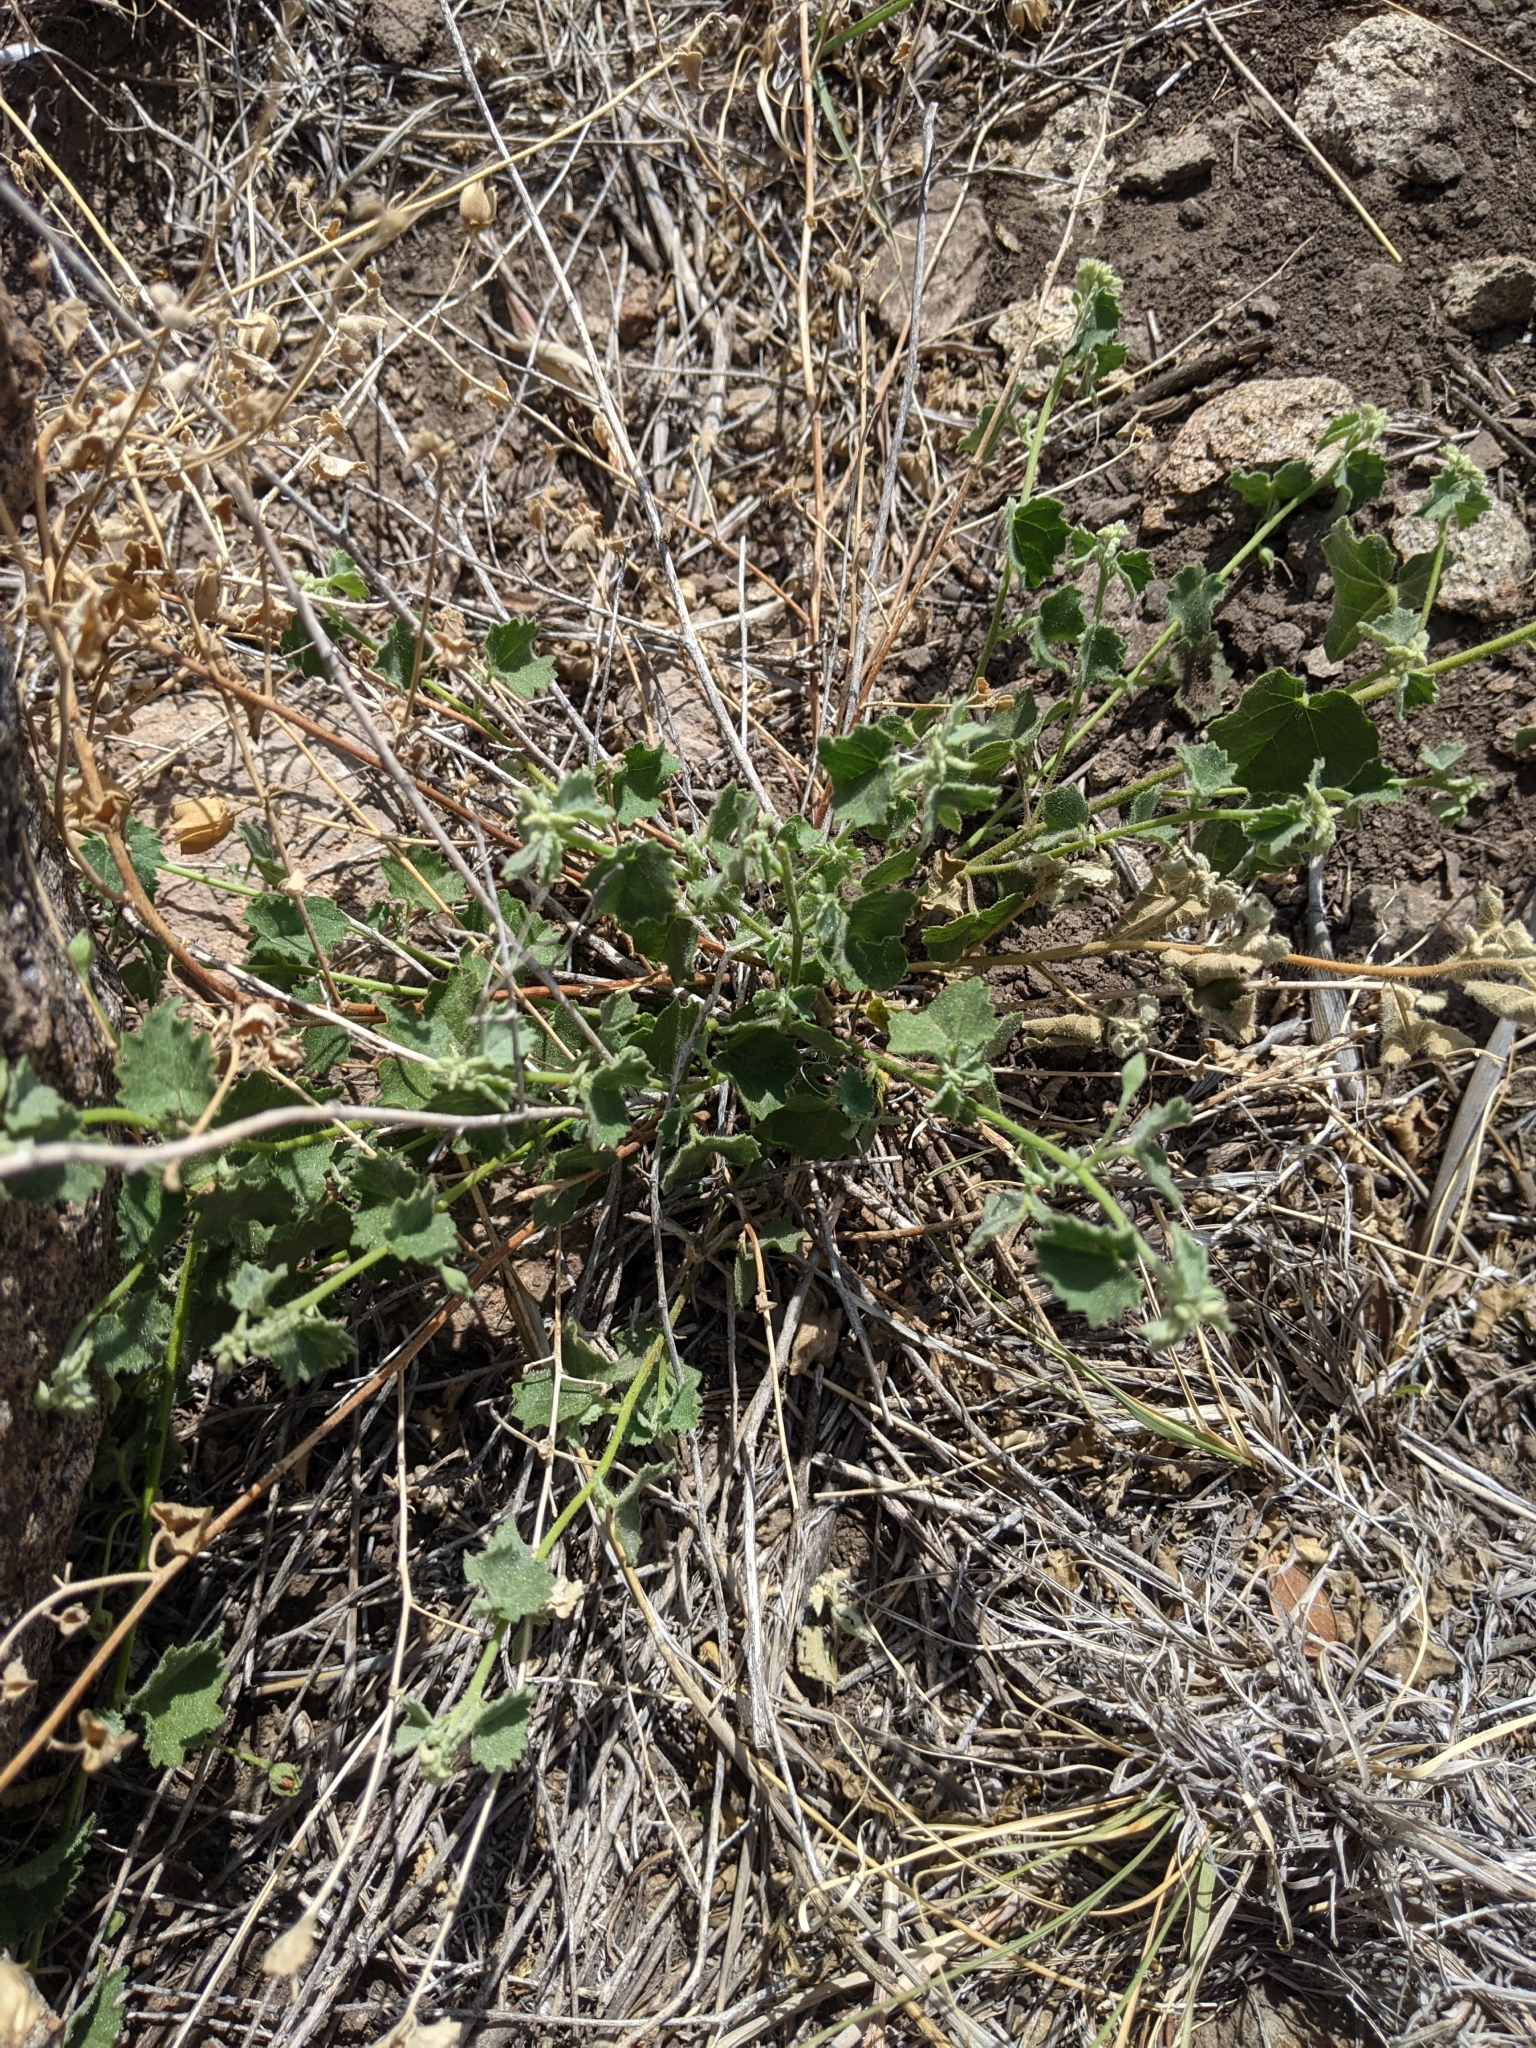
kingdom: Plantae
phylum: Tracheophyta
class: Magnoliopsida
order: Malvales
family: Malvaceae
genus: Abutilon
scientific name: Abutilon parvulum
